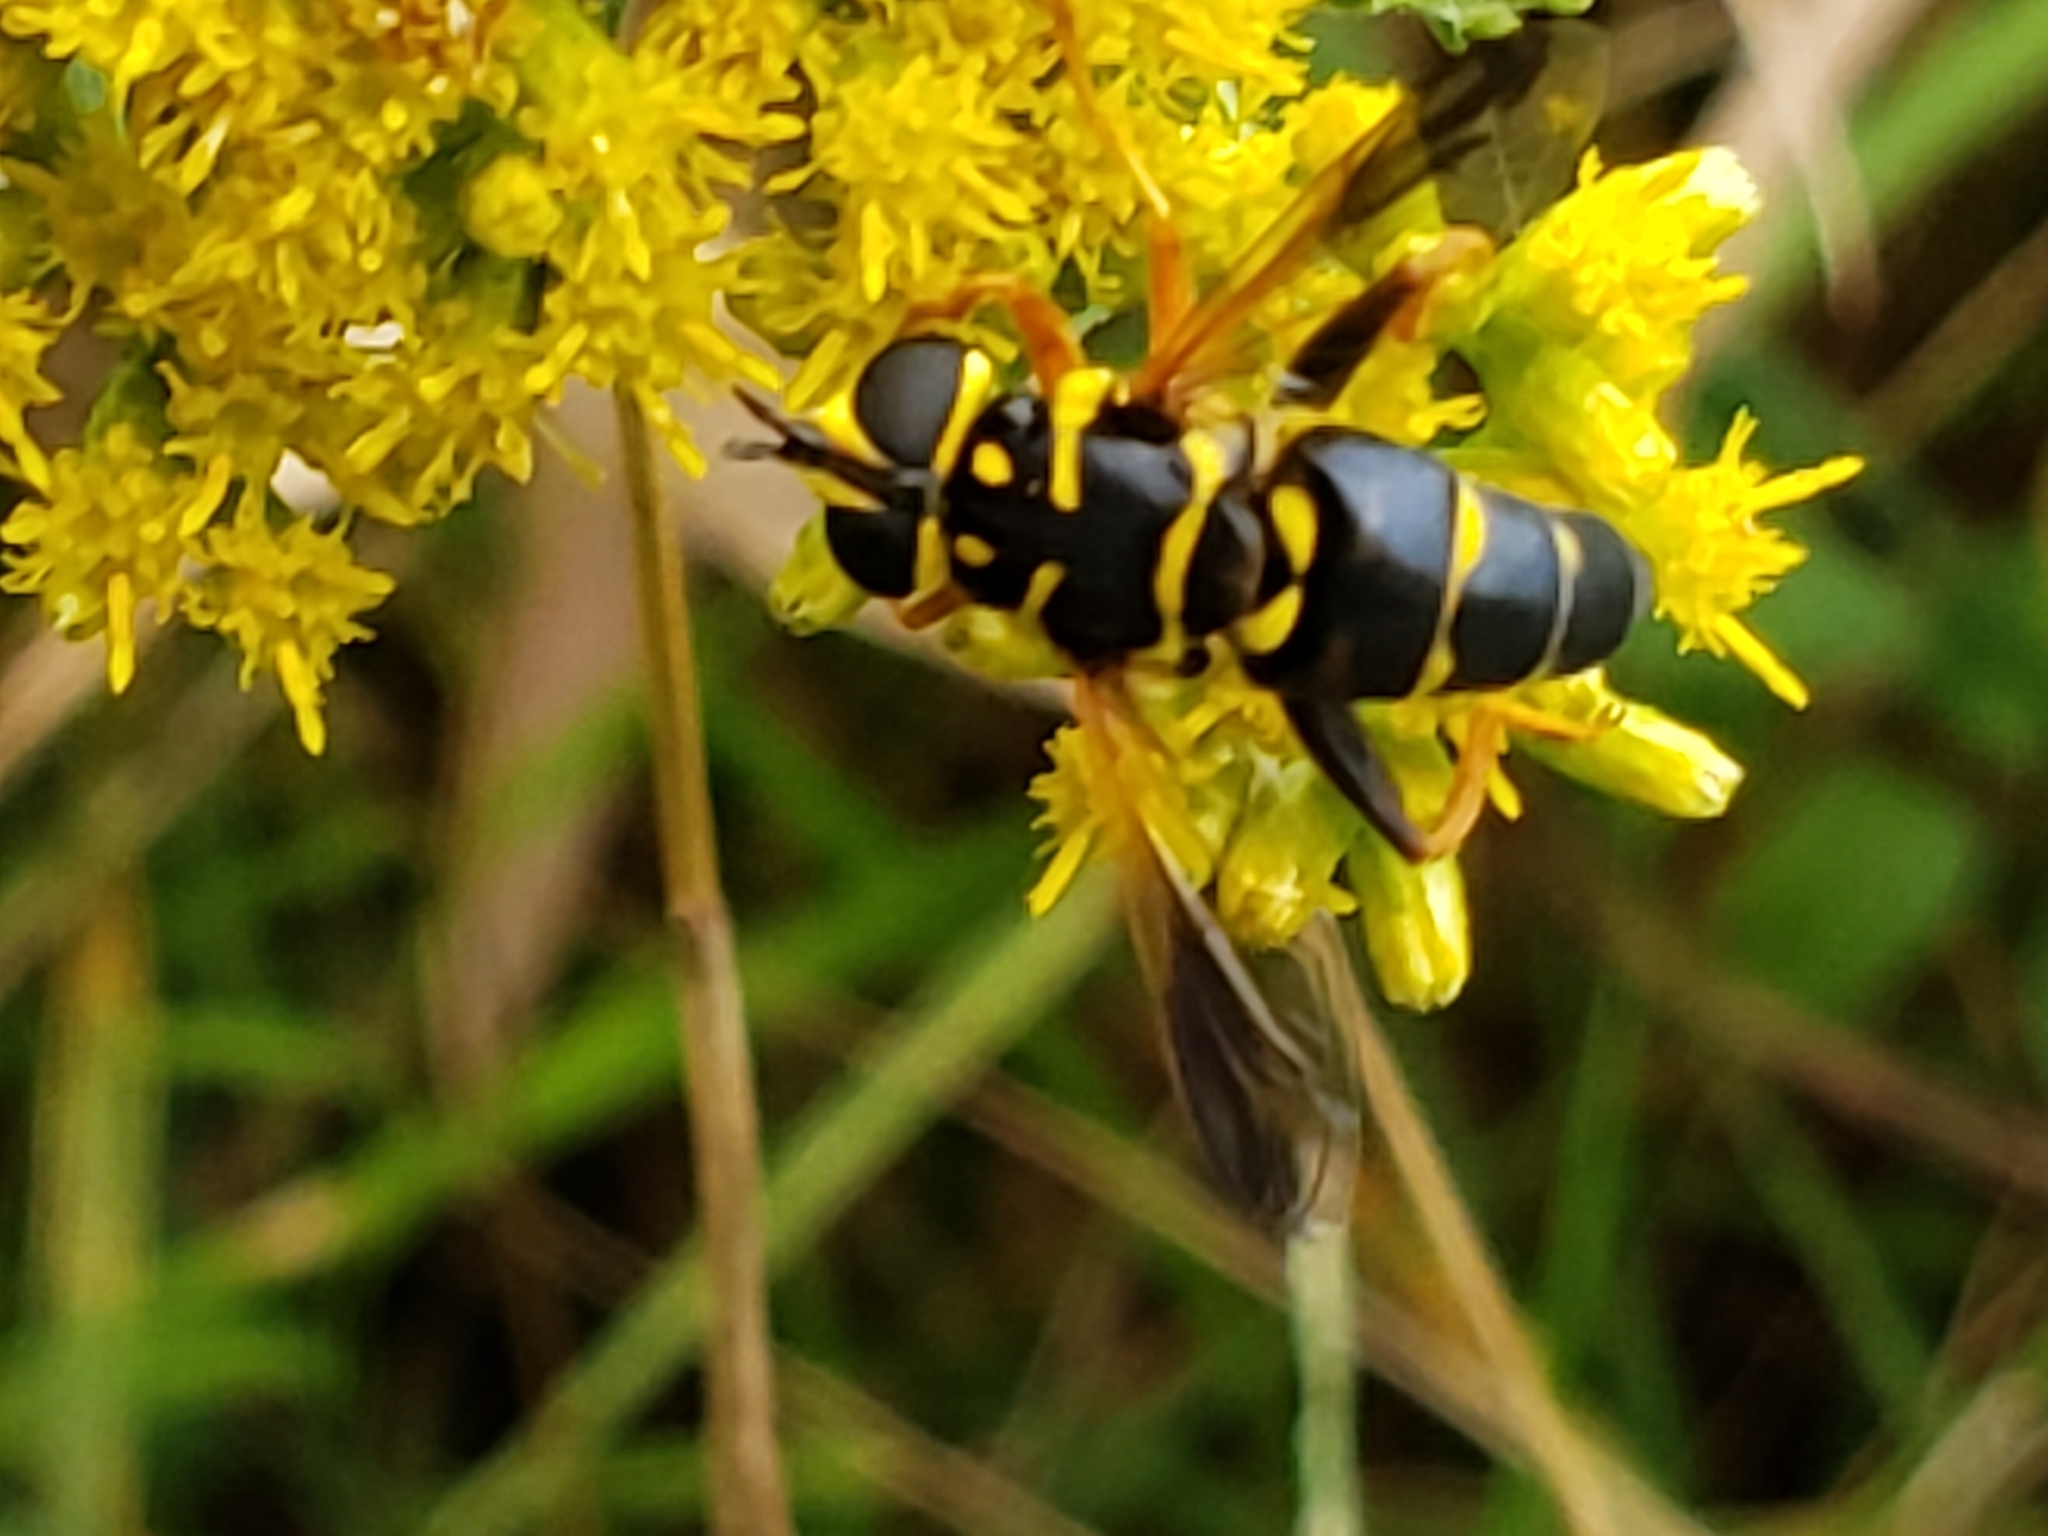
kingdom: Animalia
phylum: Arthropoda
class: Insecta
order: Diptera
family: Syrphidae
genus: Meromacrus
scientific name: Meromacrus acutus
